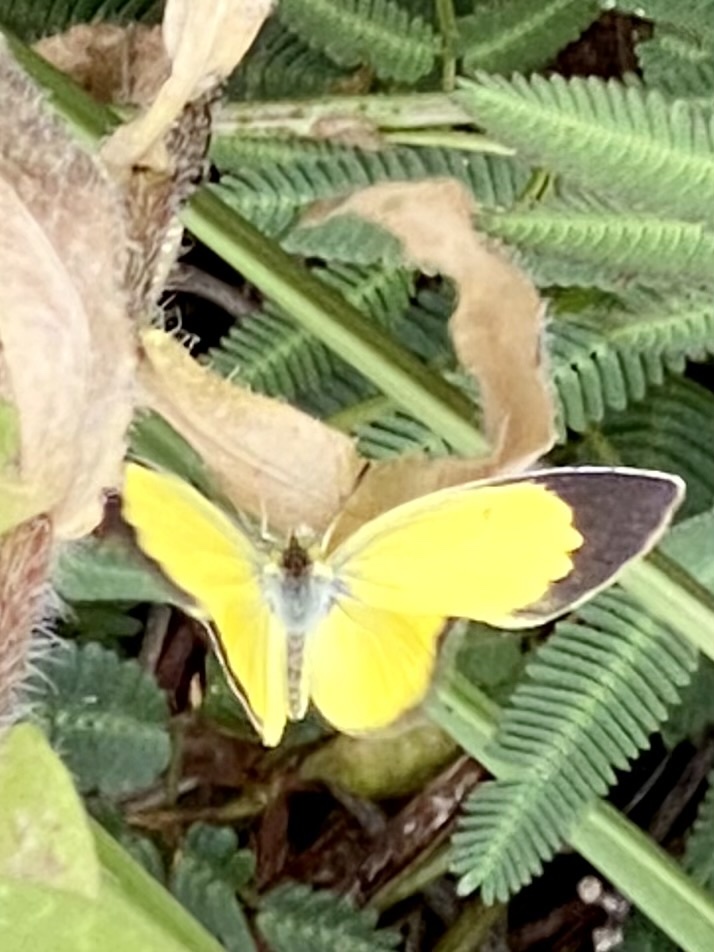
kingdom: Animalia
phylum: Arthropoda
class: Insecta
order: Lepidoptera
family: Pieridae
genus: Pyrisitia
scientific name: Pyrisitia lisa
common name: Little yellow
